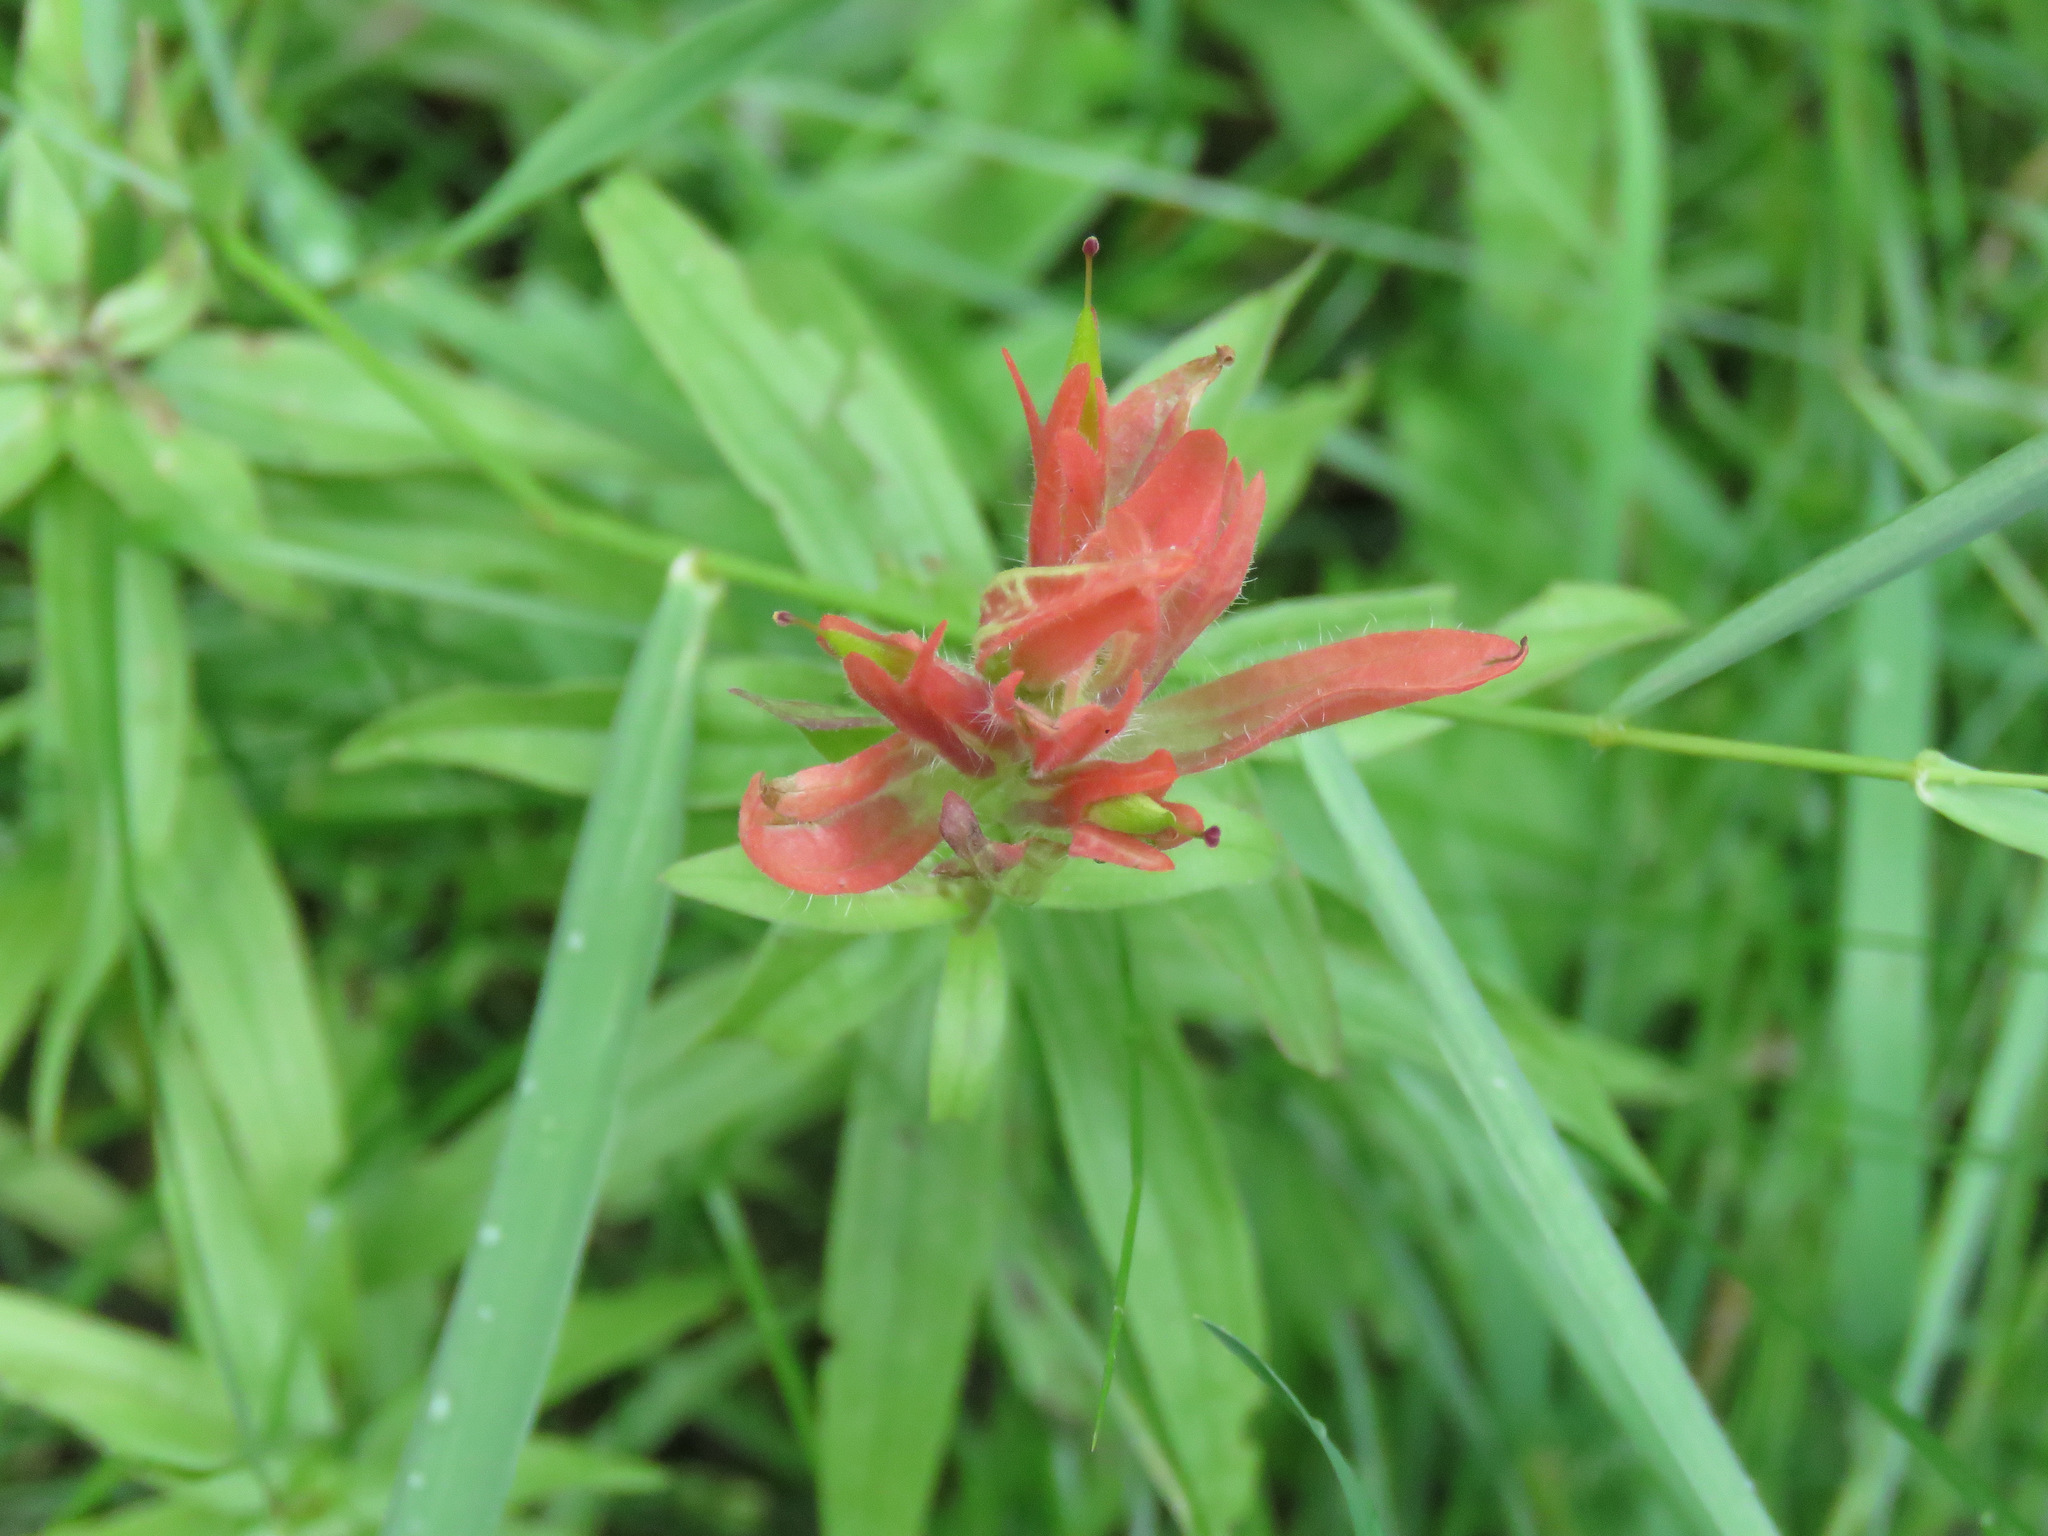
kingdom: Plantae
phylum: Tracheophyta
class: Magnoliopsida
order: Lamiales
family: Orobanchaceae
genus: Castilleja
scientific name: Castilleja miniata
